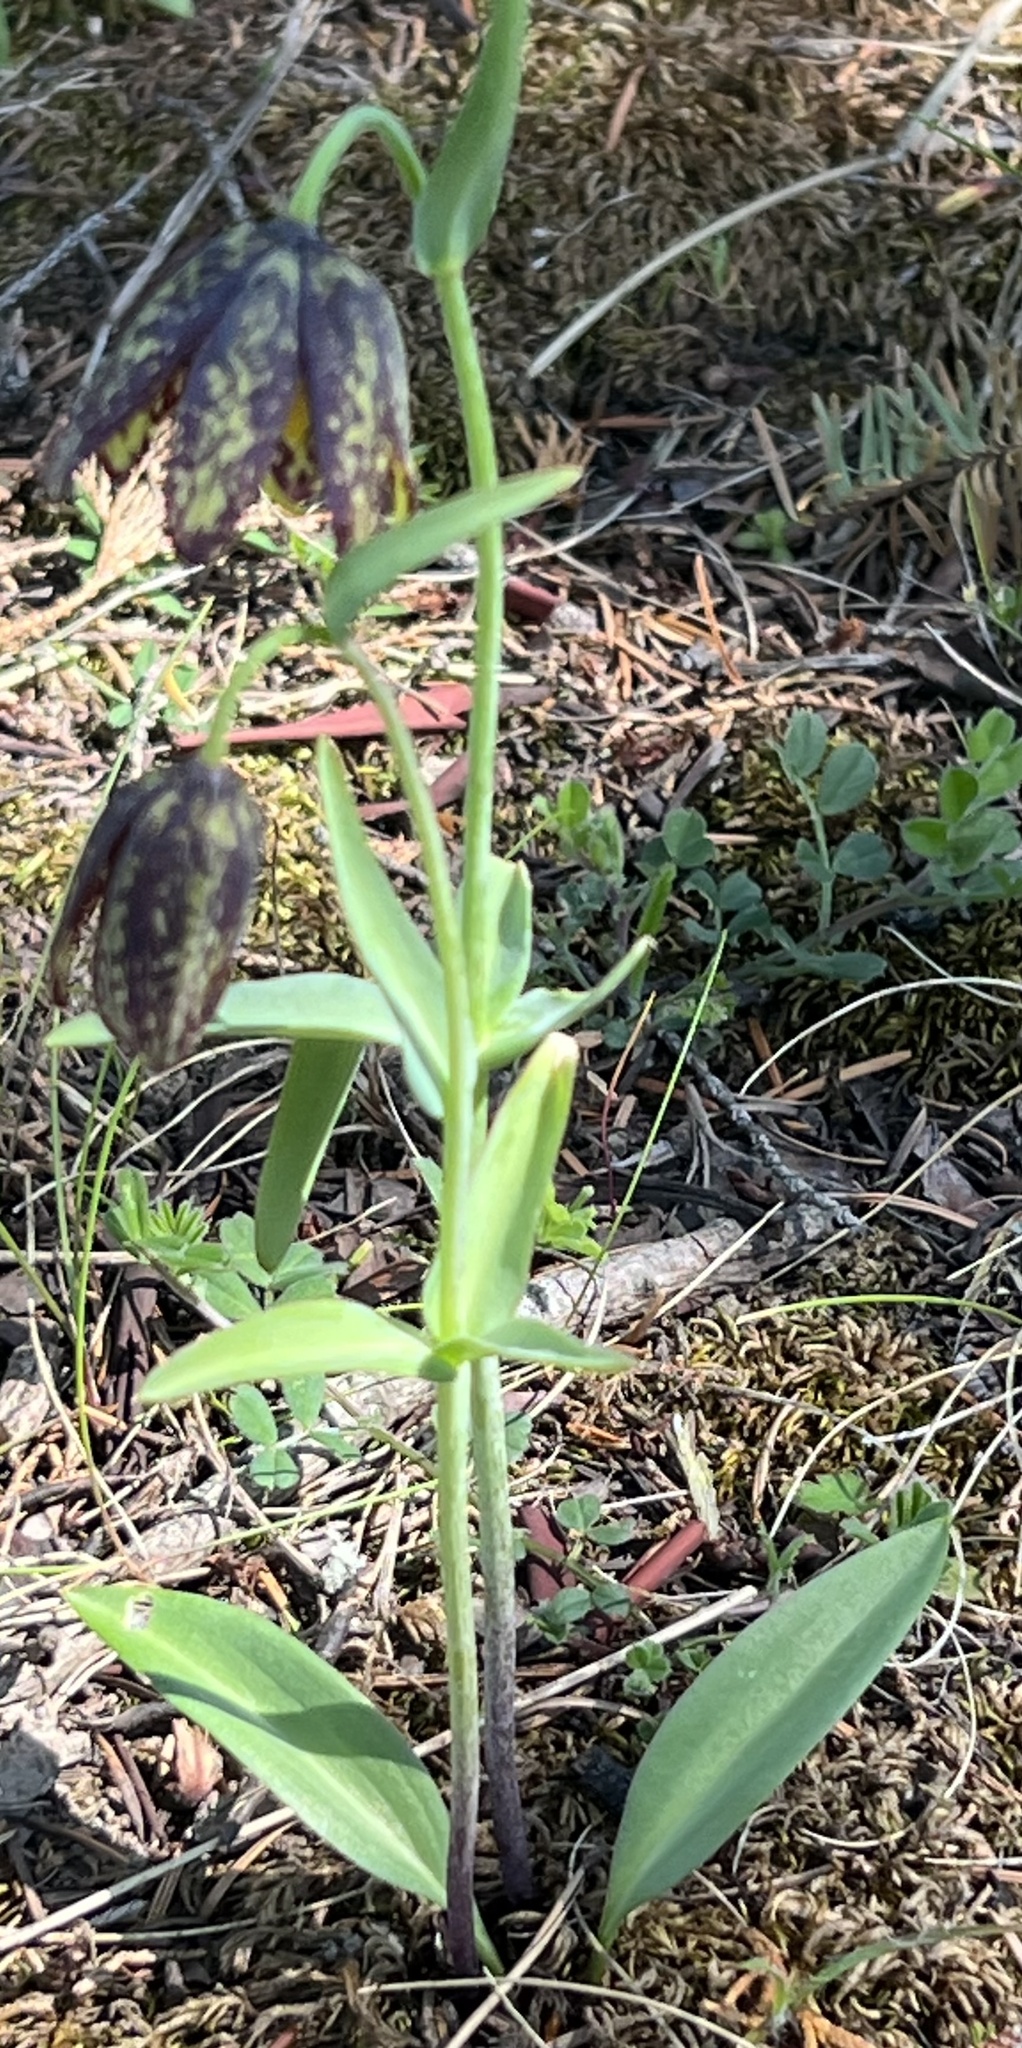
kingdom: Plantae
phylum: Tracheophyta
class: Liliopsida
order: Liliales
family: Liliaceae
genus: Fritillaria
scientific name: Fritillaria affinis
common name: Ojai fritillary
